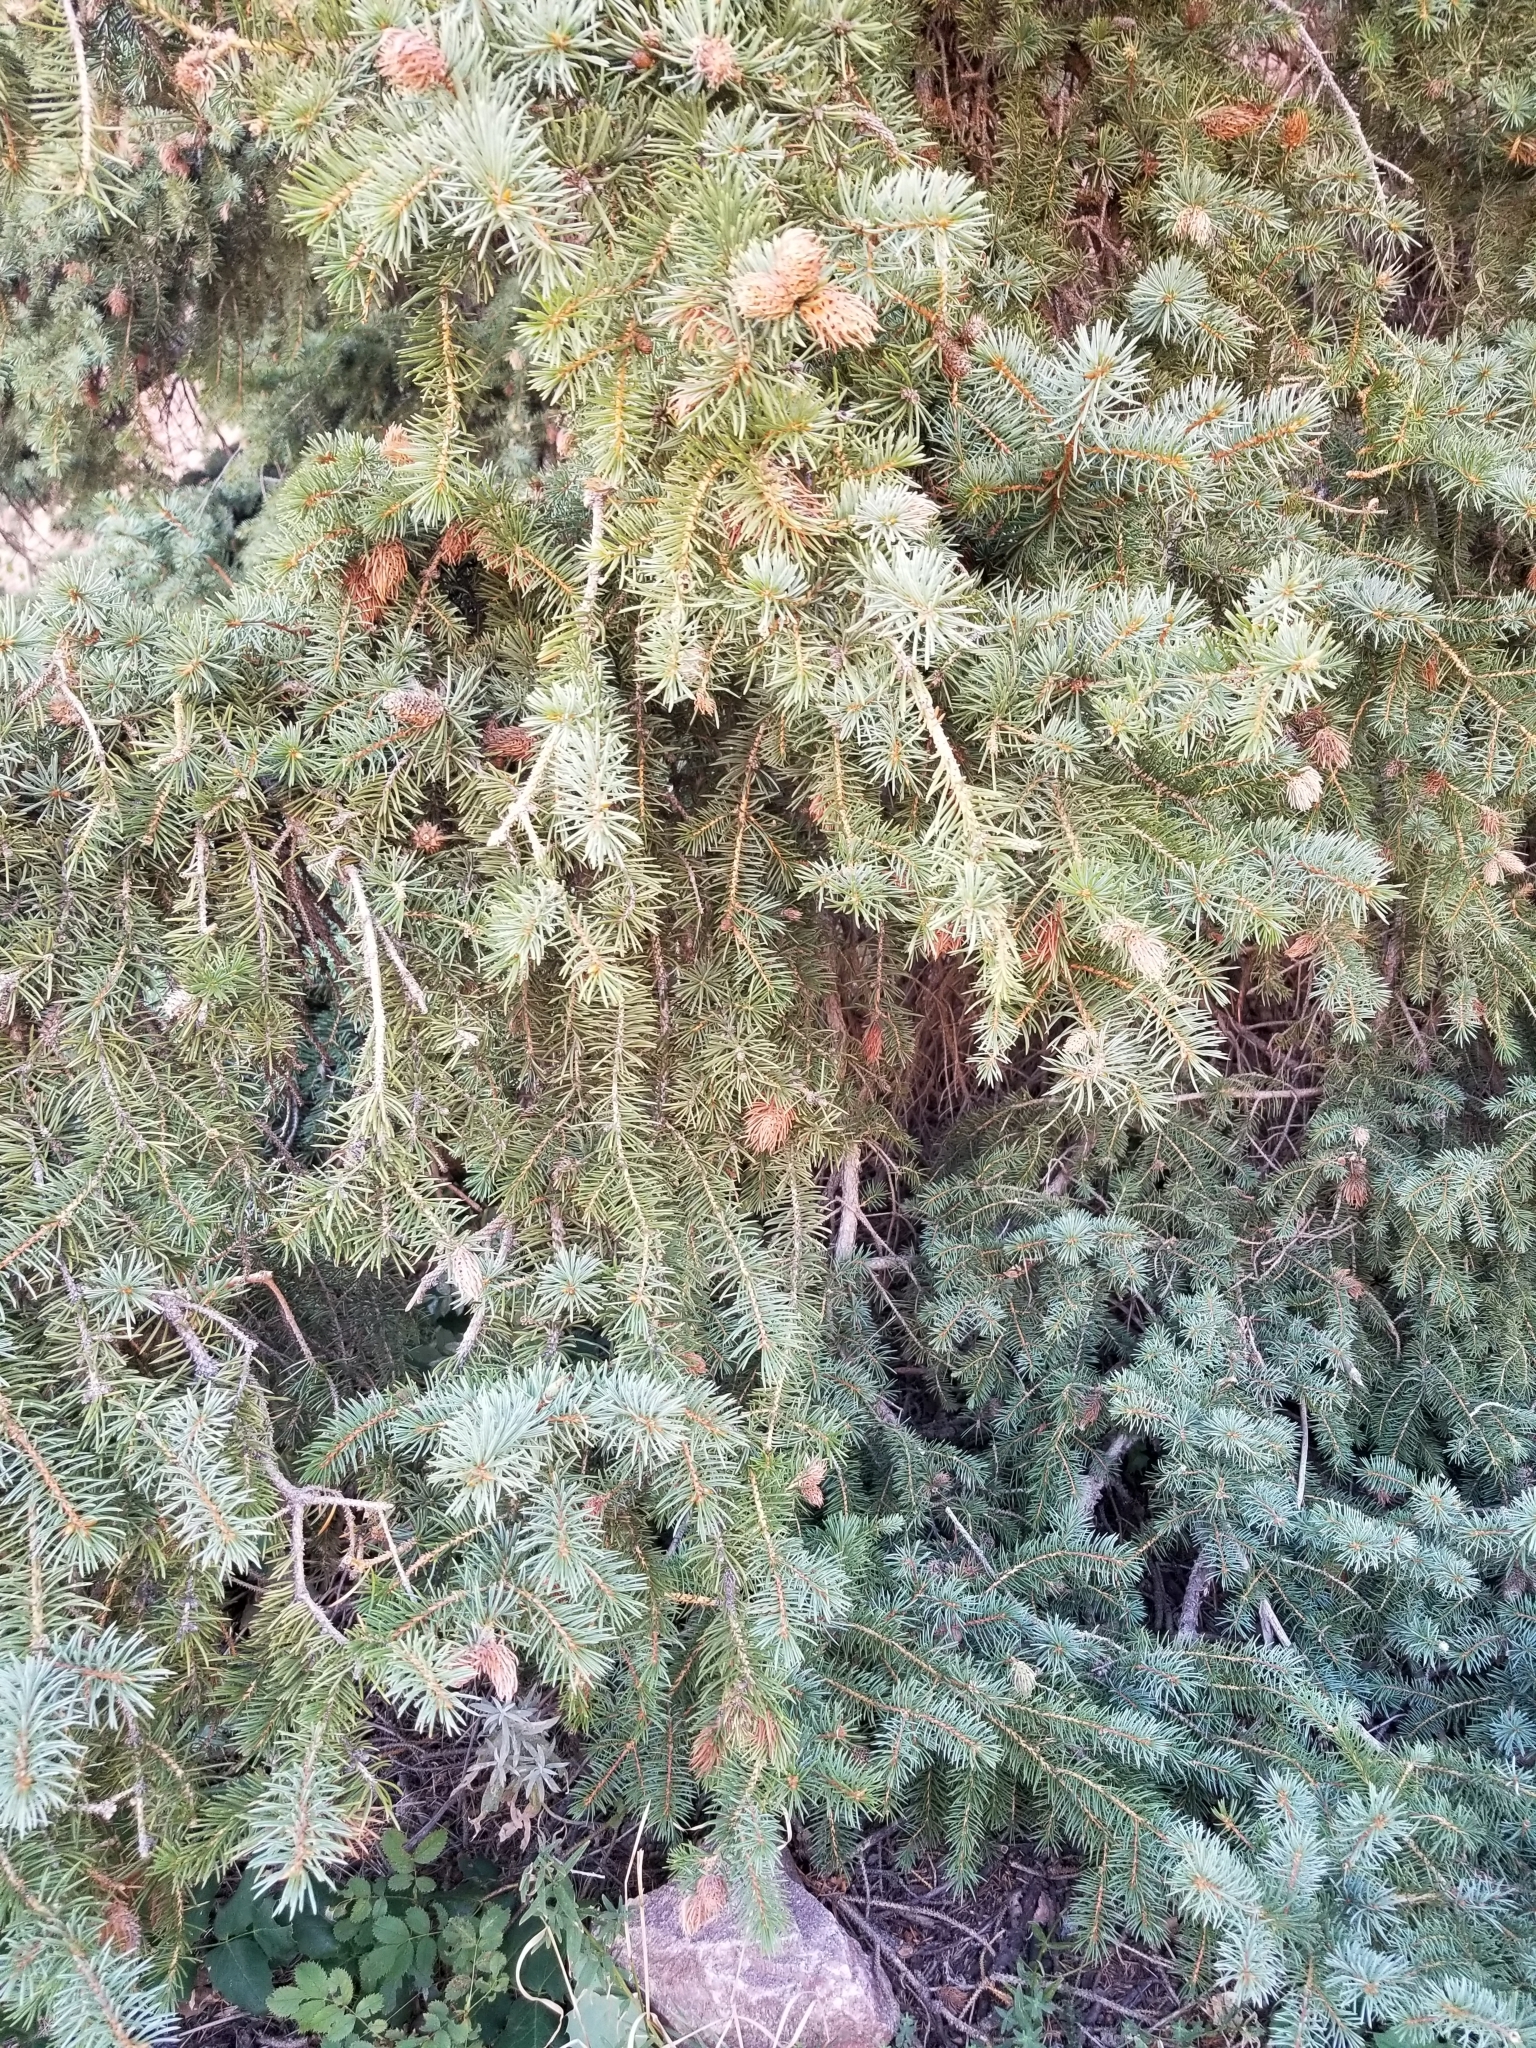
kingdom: Plantae
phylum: Tracheophyta
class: Pinopsida
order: Pinales
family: Pinaceae
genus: Picea
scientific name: Picea pungens
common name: Colorado spruce
